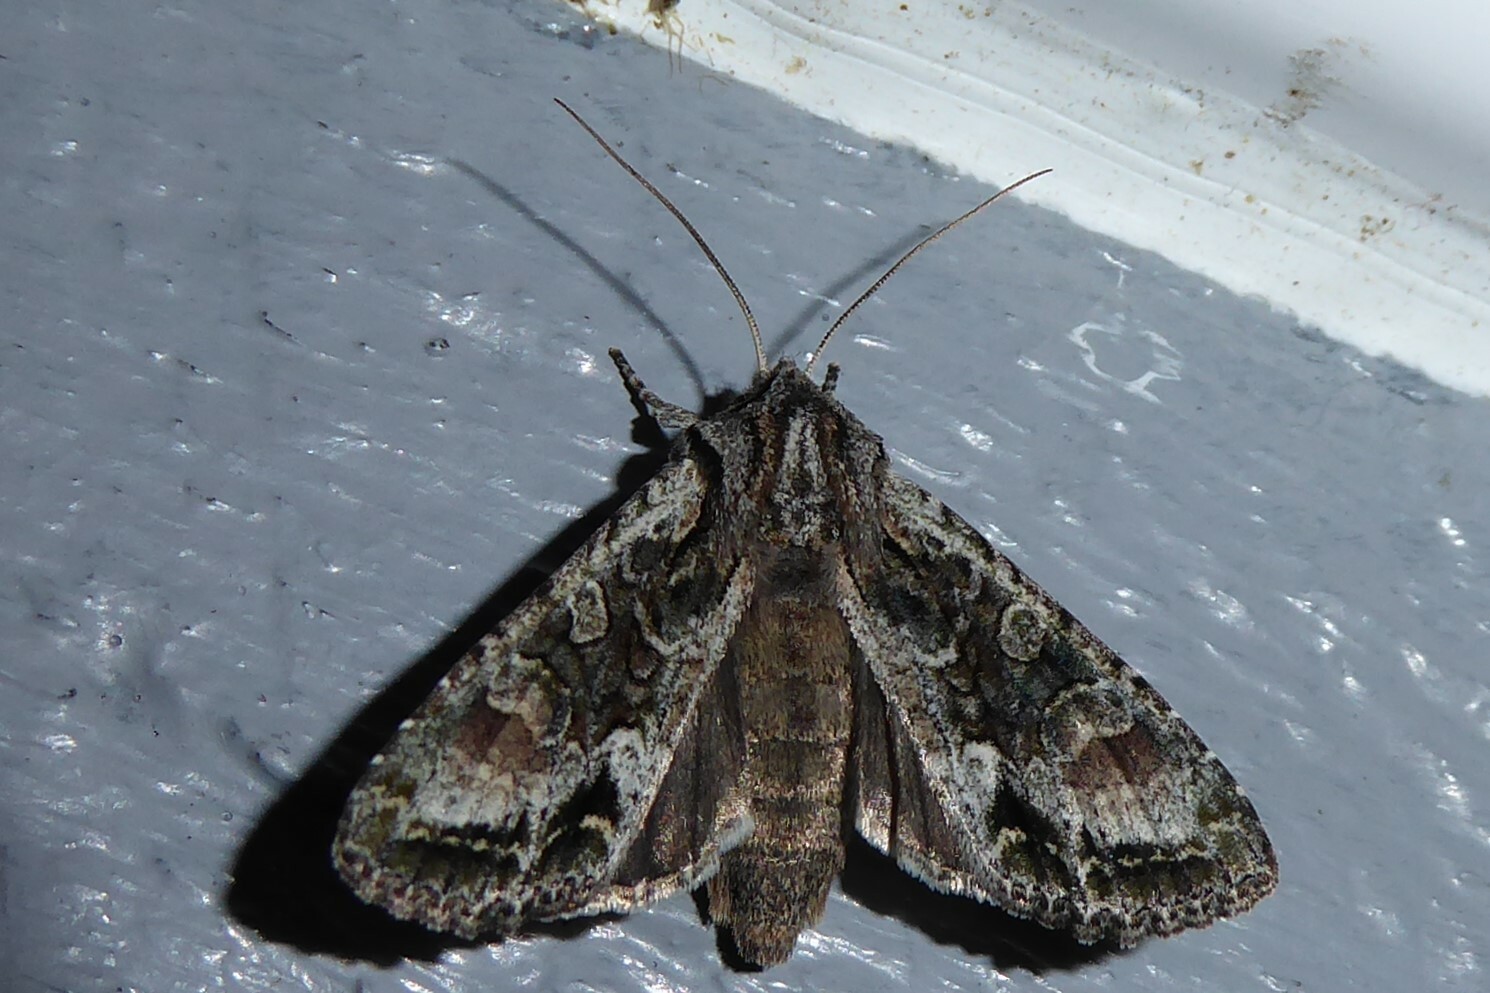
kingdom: Animalia
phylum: Arthropoda
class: Insecta
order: Lepidoptera
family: Noctuidae
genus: Ichneutica
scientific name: Ichneutica mutans
